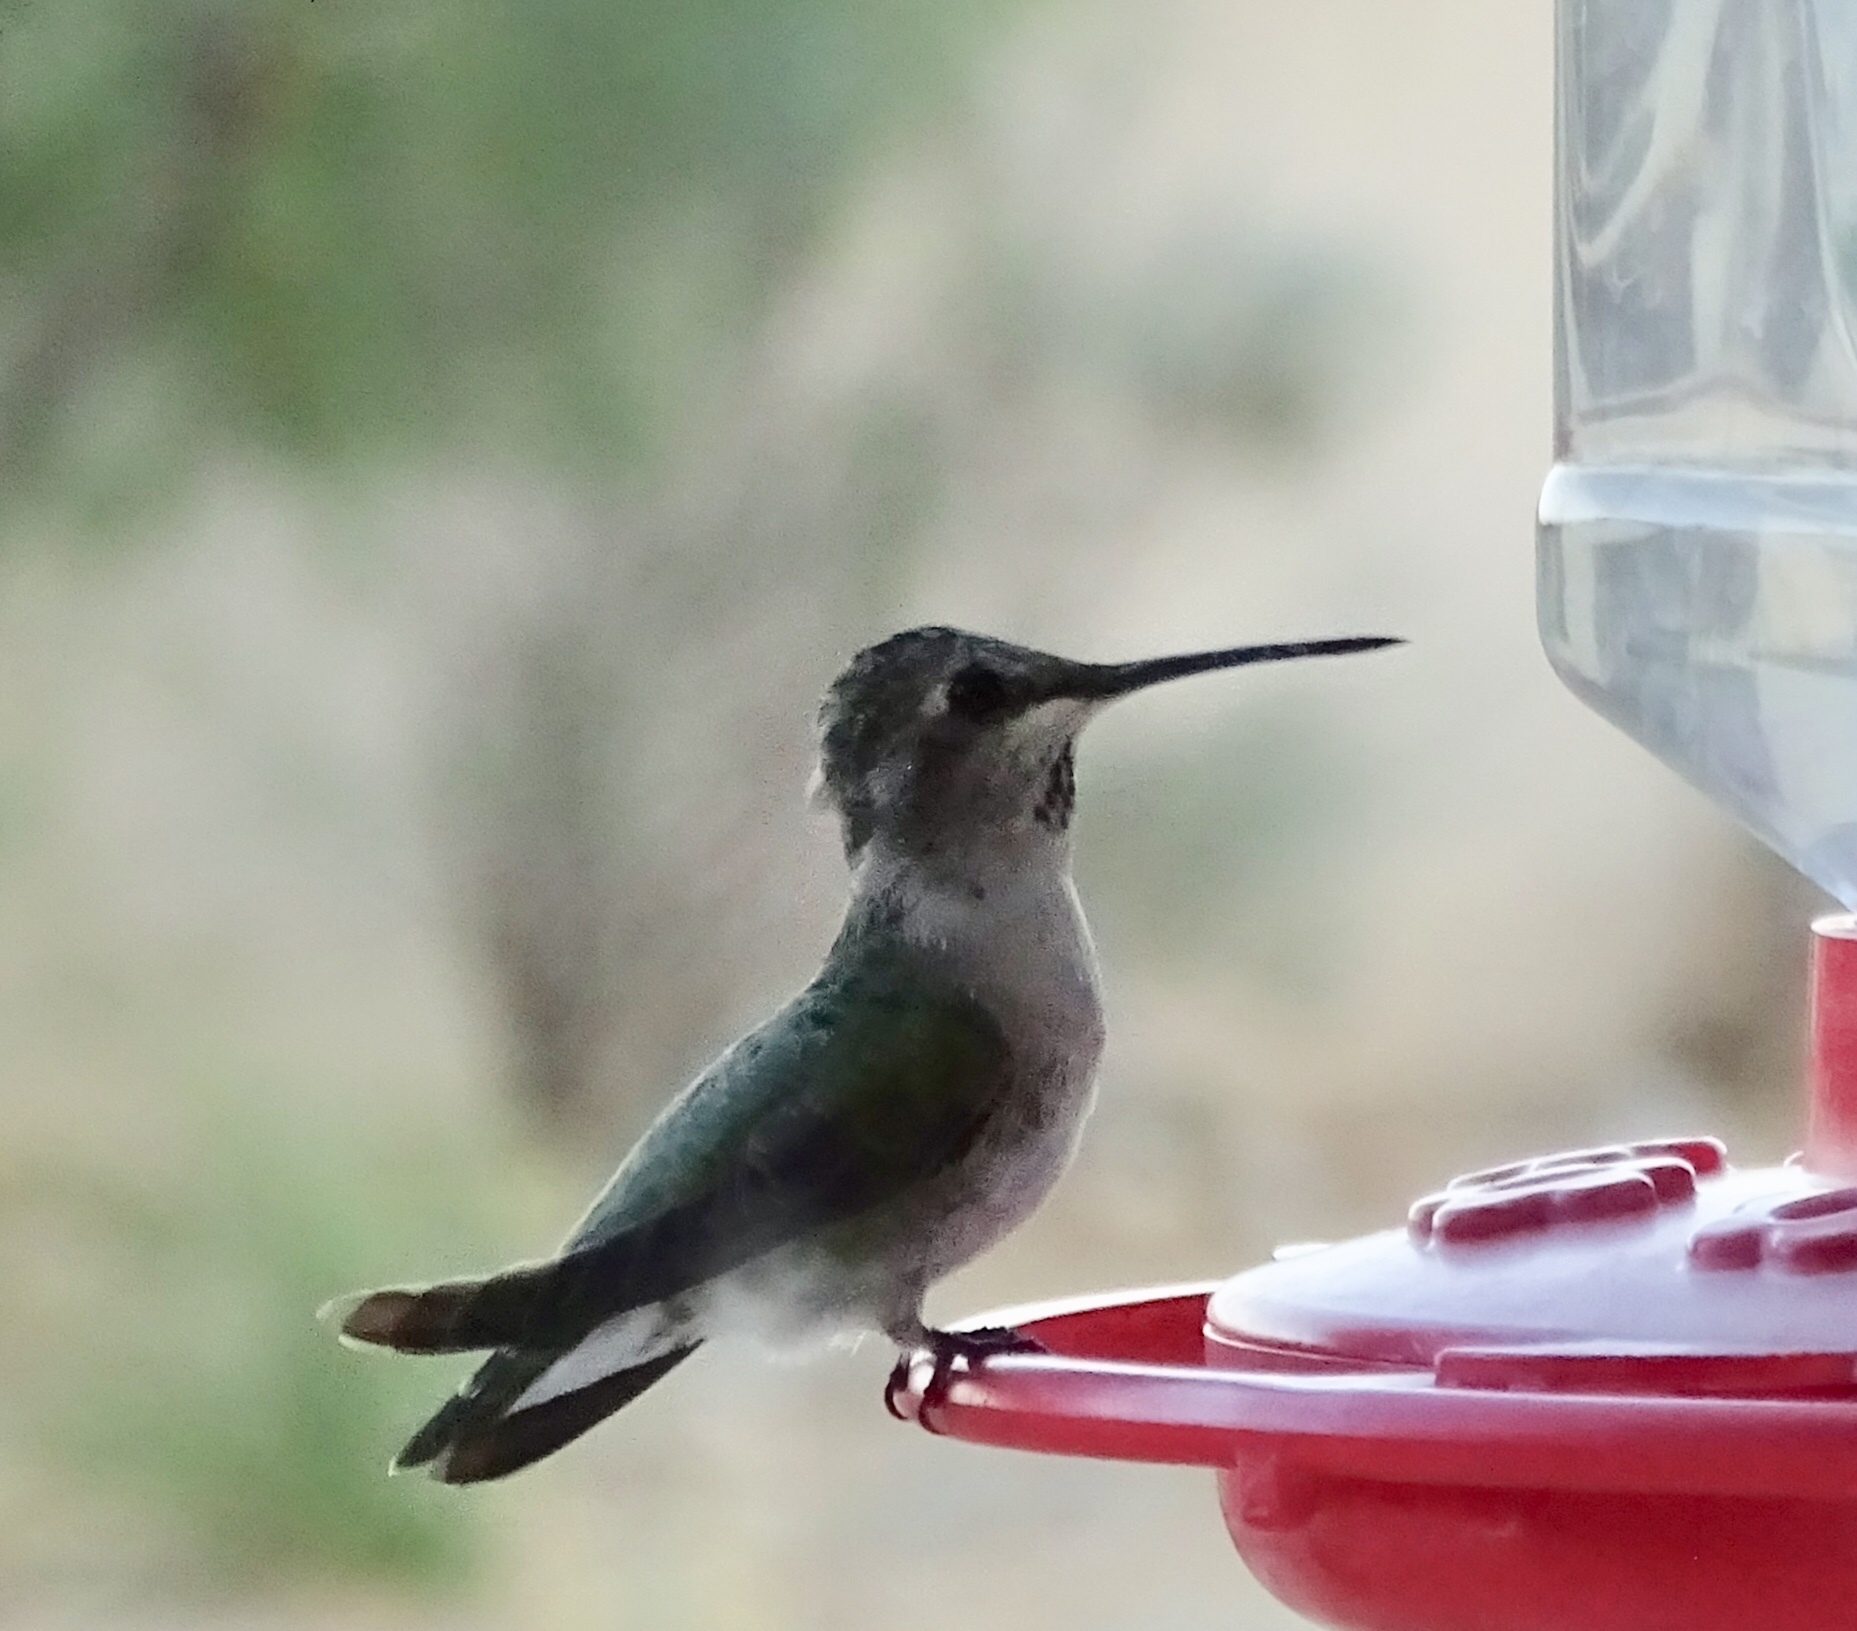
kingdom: Animalia
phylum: Chordata
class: Aves
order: Apodiformes
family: Trochilidae
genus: Calypte
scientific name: Calypte costae
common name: Costa's hummingbird
